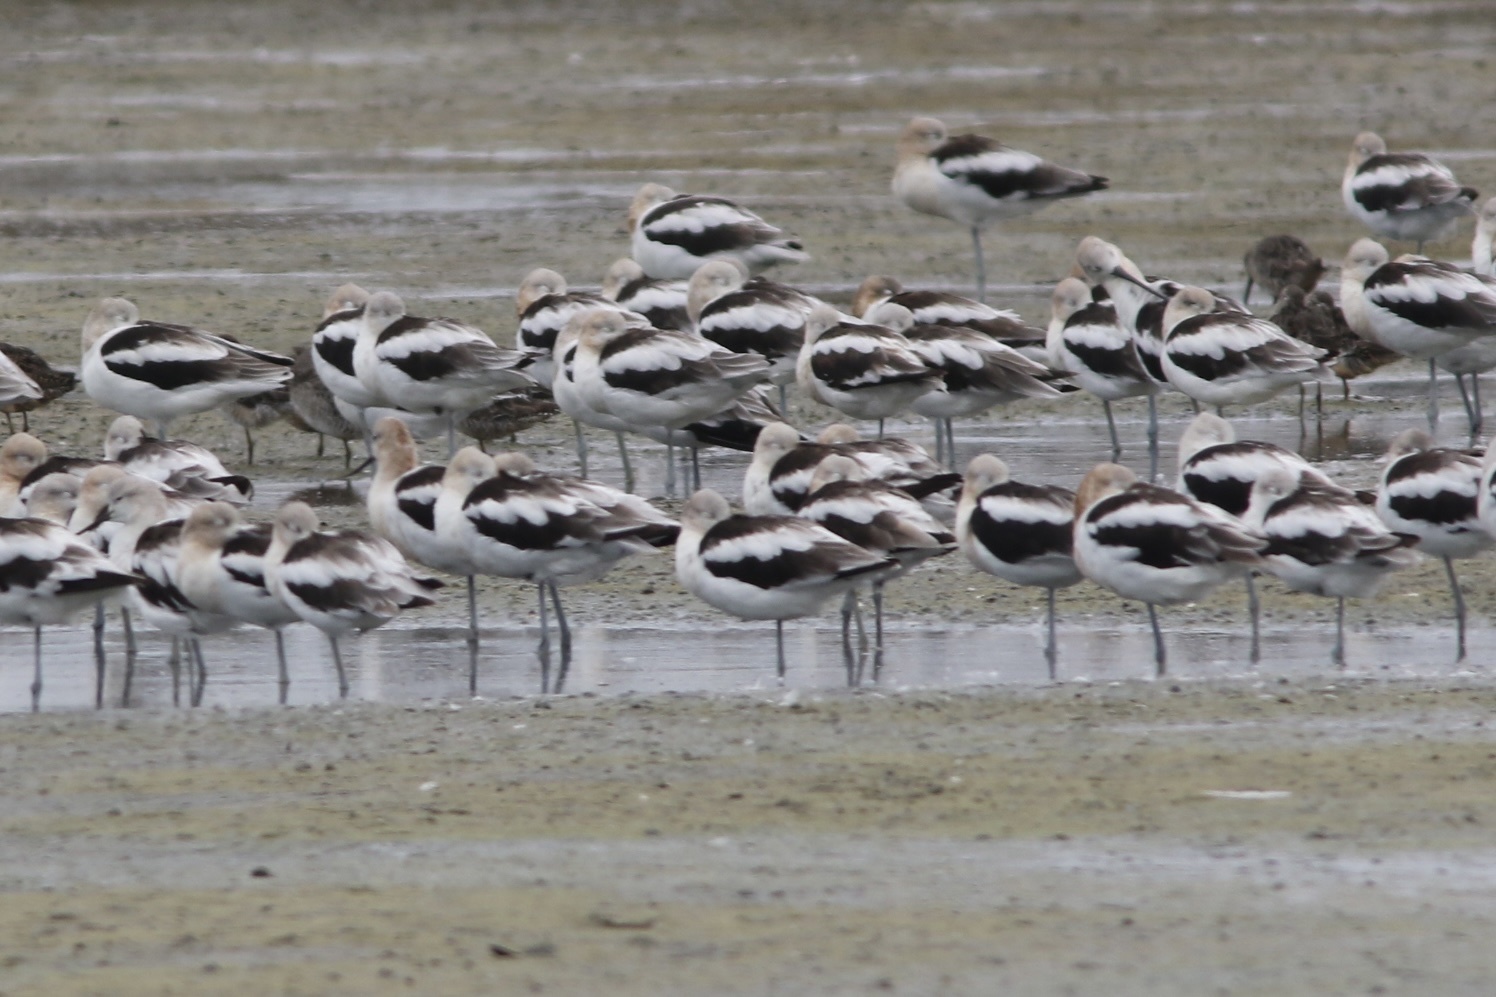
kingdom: Animalia
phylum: Chordata
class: Aves
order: Charadriiformes
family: Recurvirostridae
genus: Recurvirostra
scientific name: Recurvirostra americana
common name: American avocet
